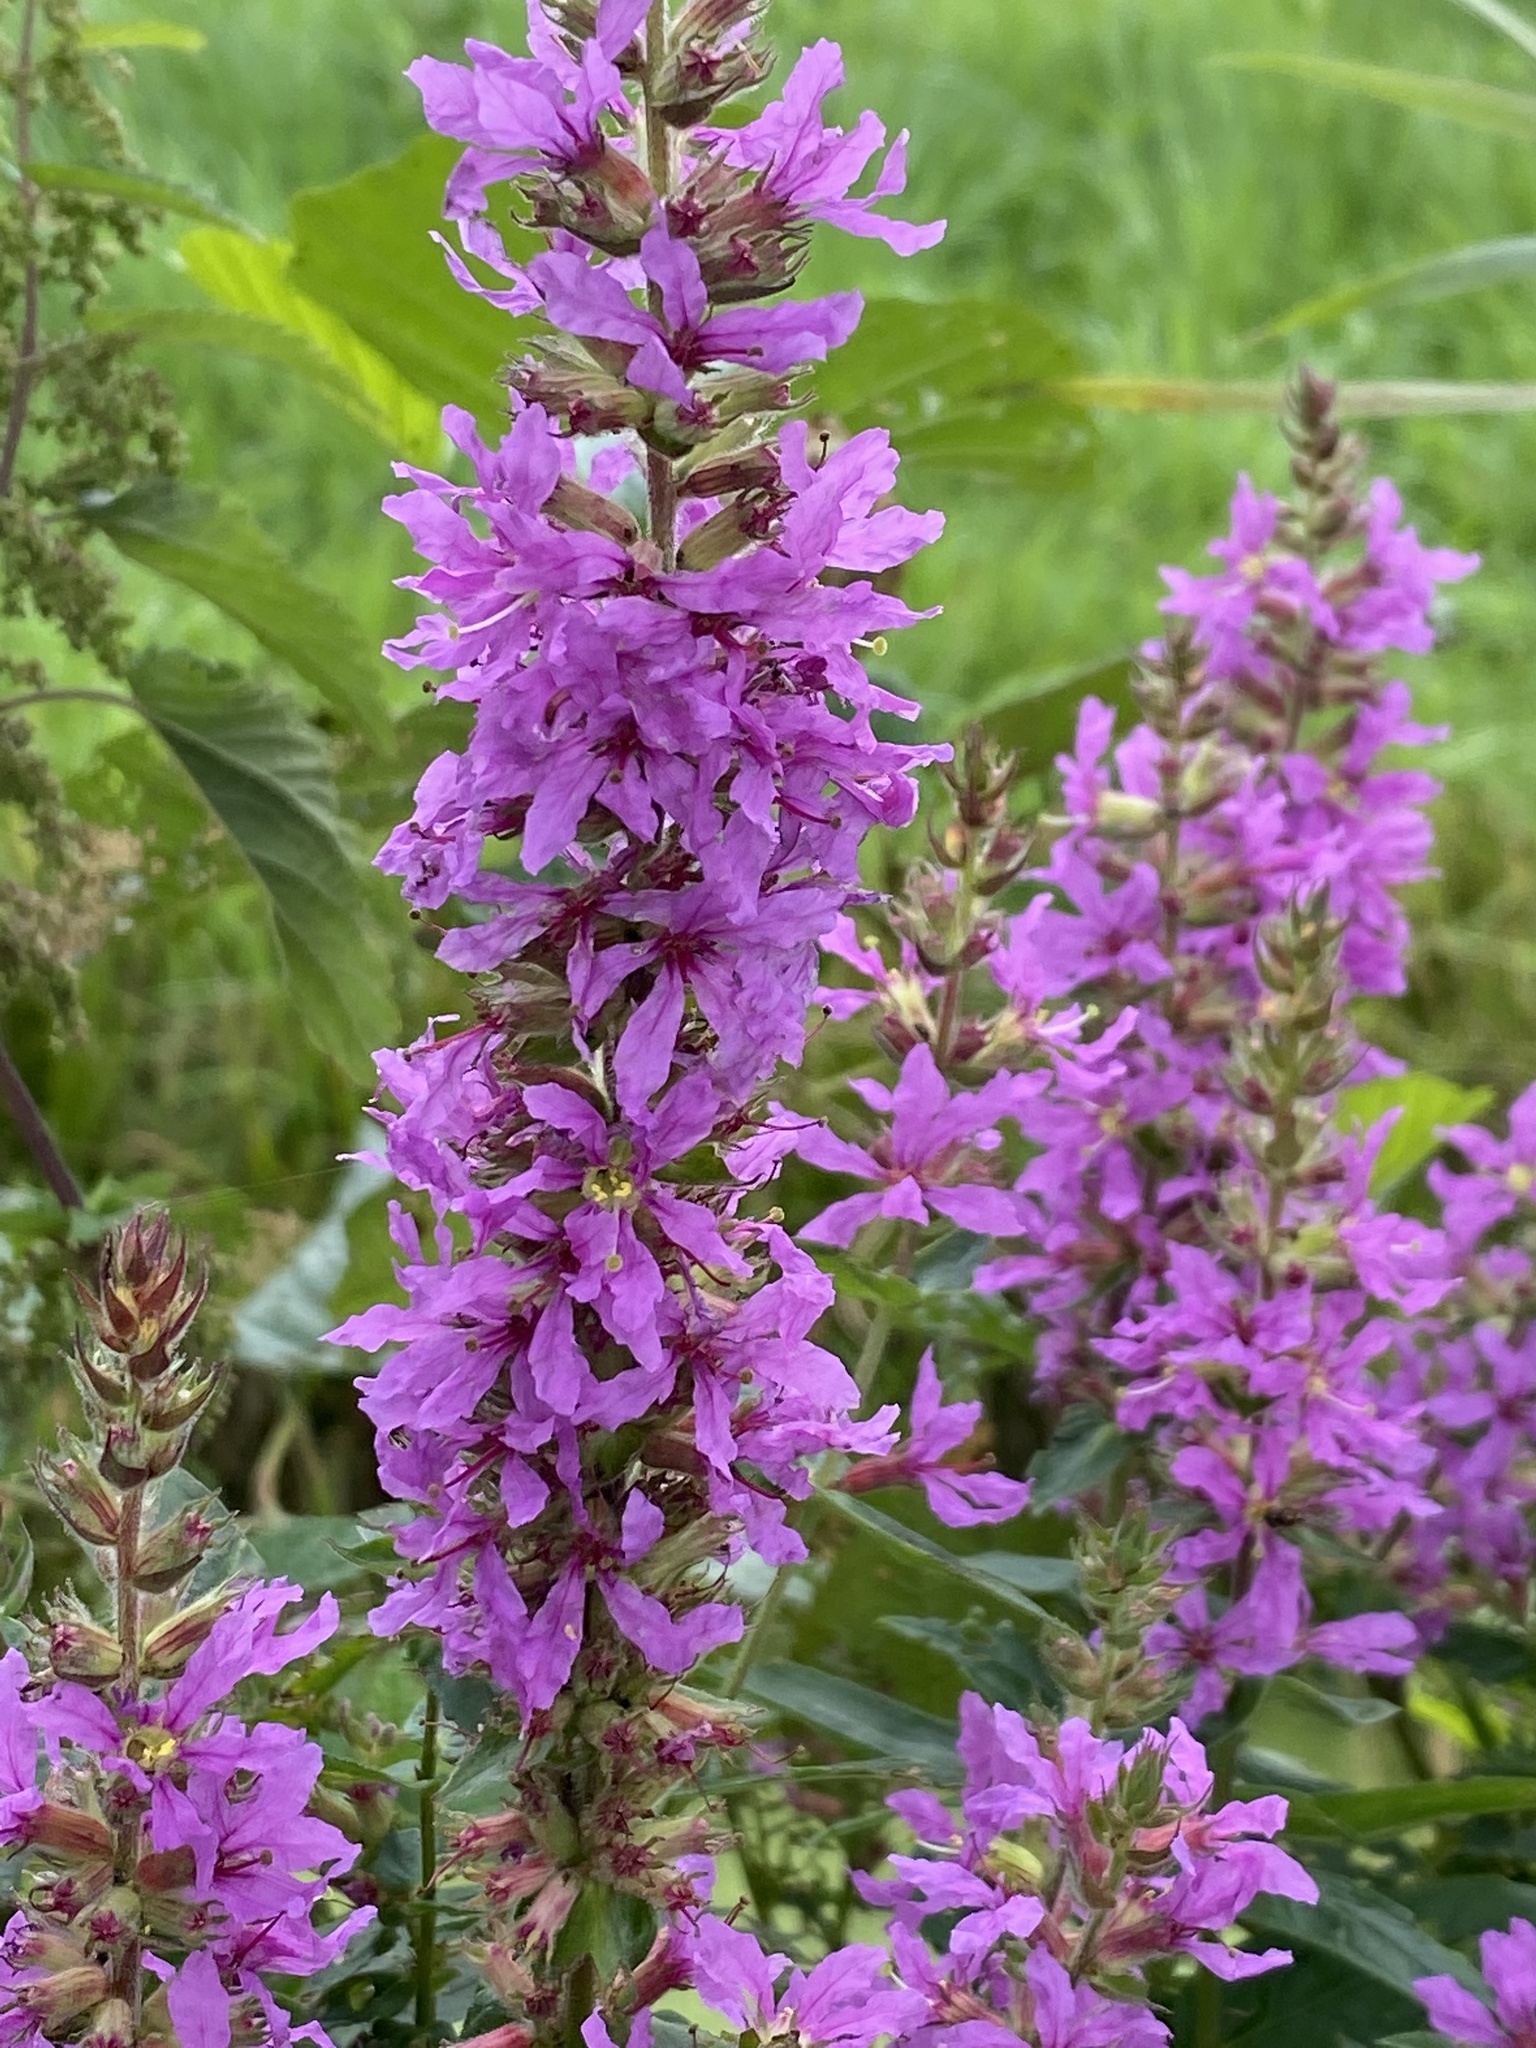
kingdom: Plantae
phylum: Tracheophyta
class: Magnoliopsida
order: Myrtales
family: Lythraceae
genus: Lythrum
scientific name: Lythrum salicaria
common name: Purple loosestrife
